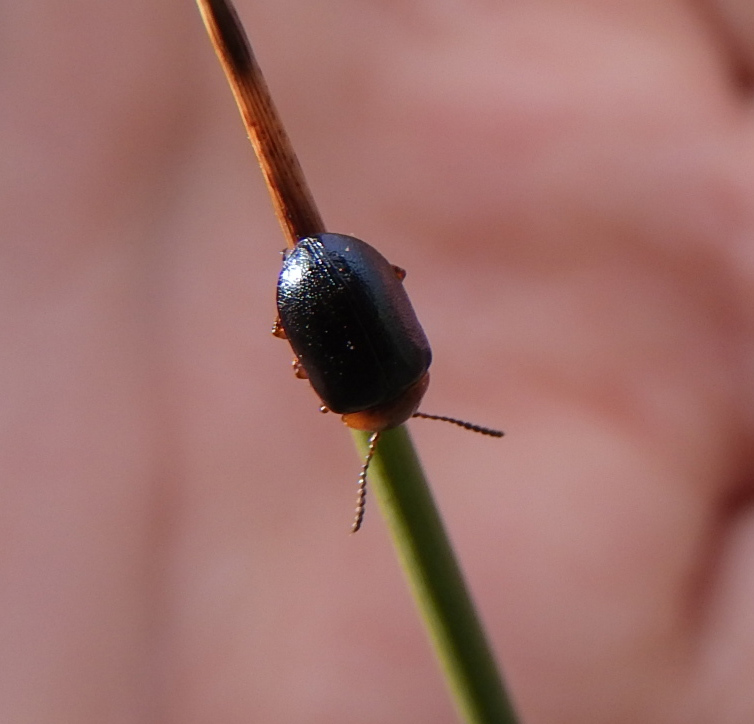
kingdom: Animalia
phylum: Arthropoda
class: Insecta
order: Coleoptera
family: Chrysomelidae
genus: Gastrophysa
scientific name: Gastrophysa polygoni
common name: Knotweed leaf beetle
